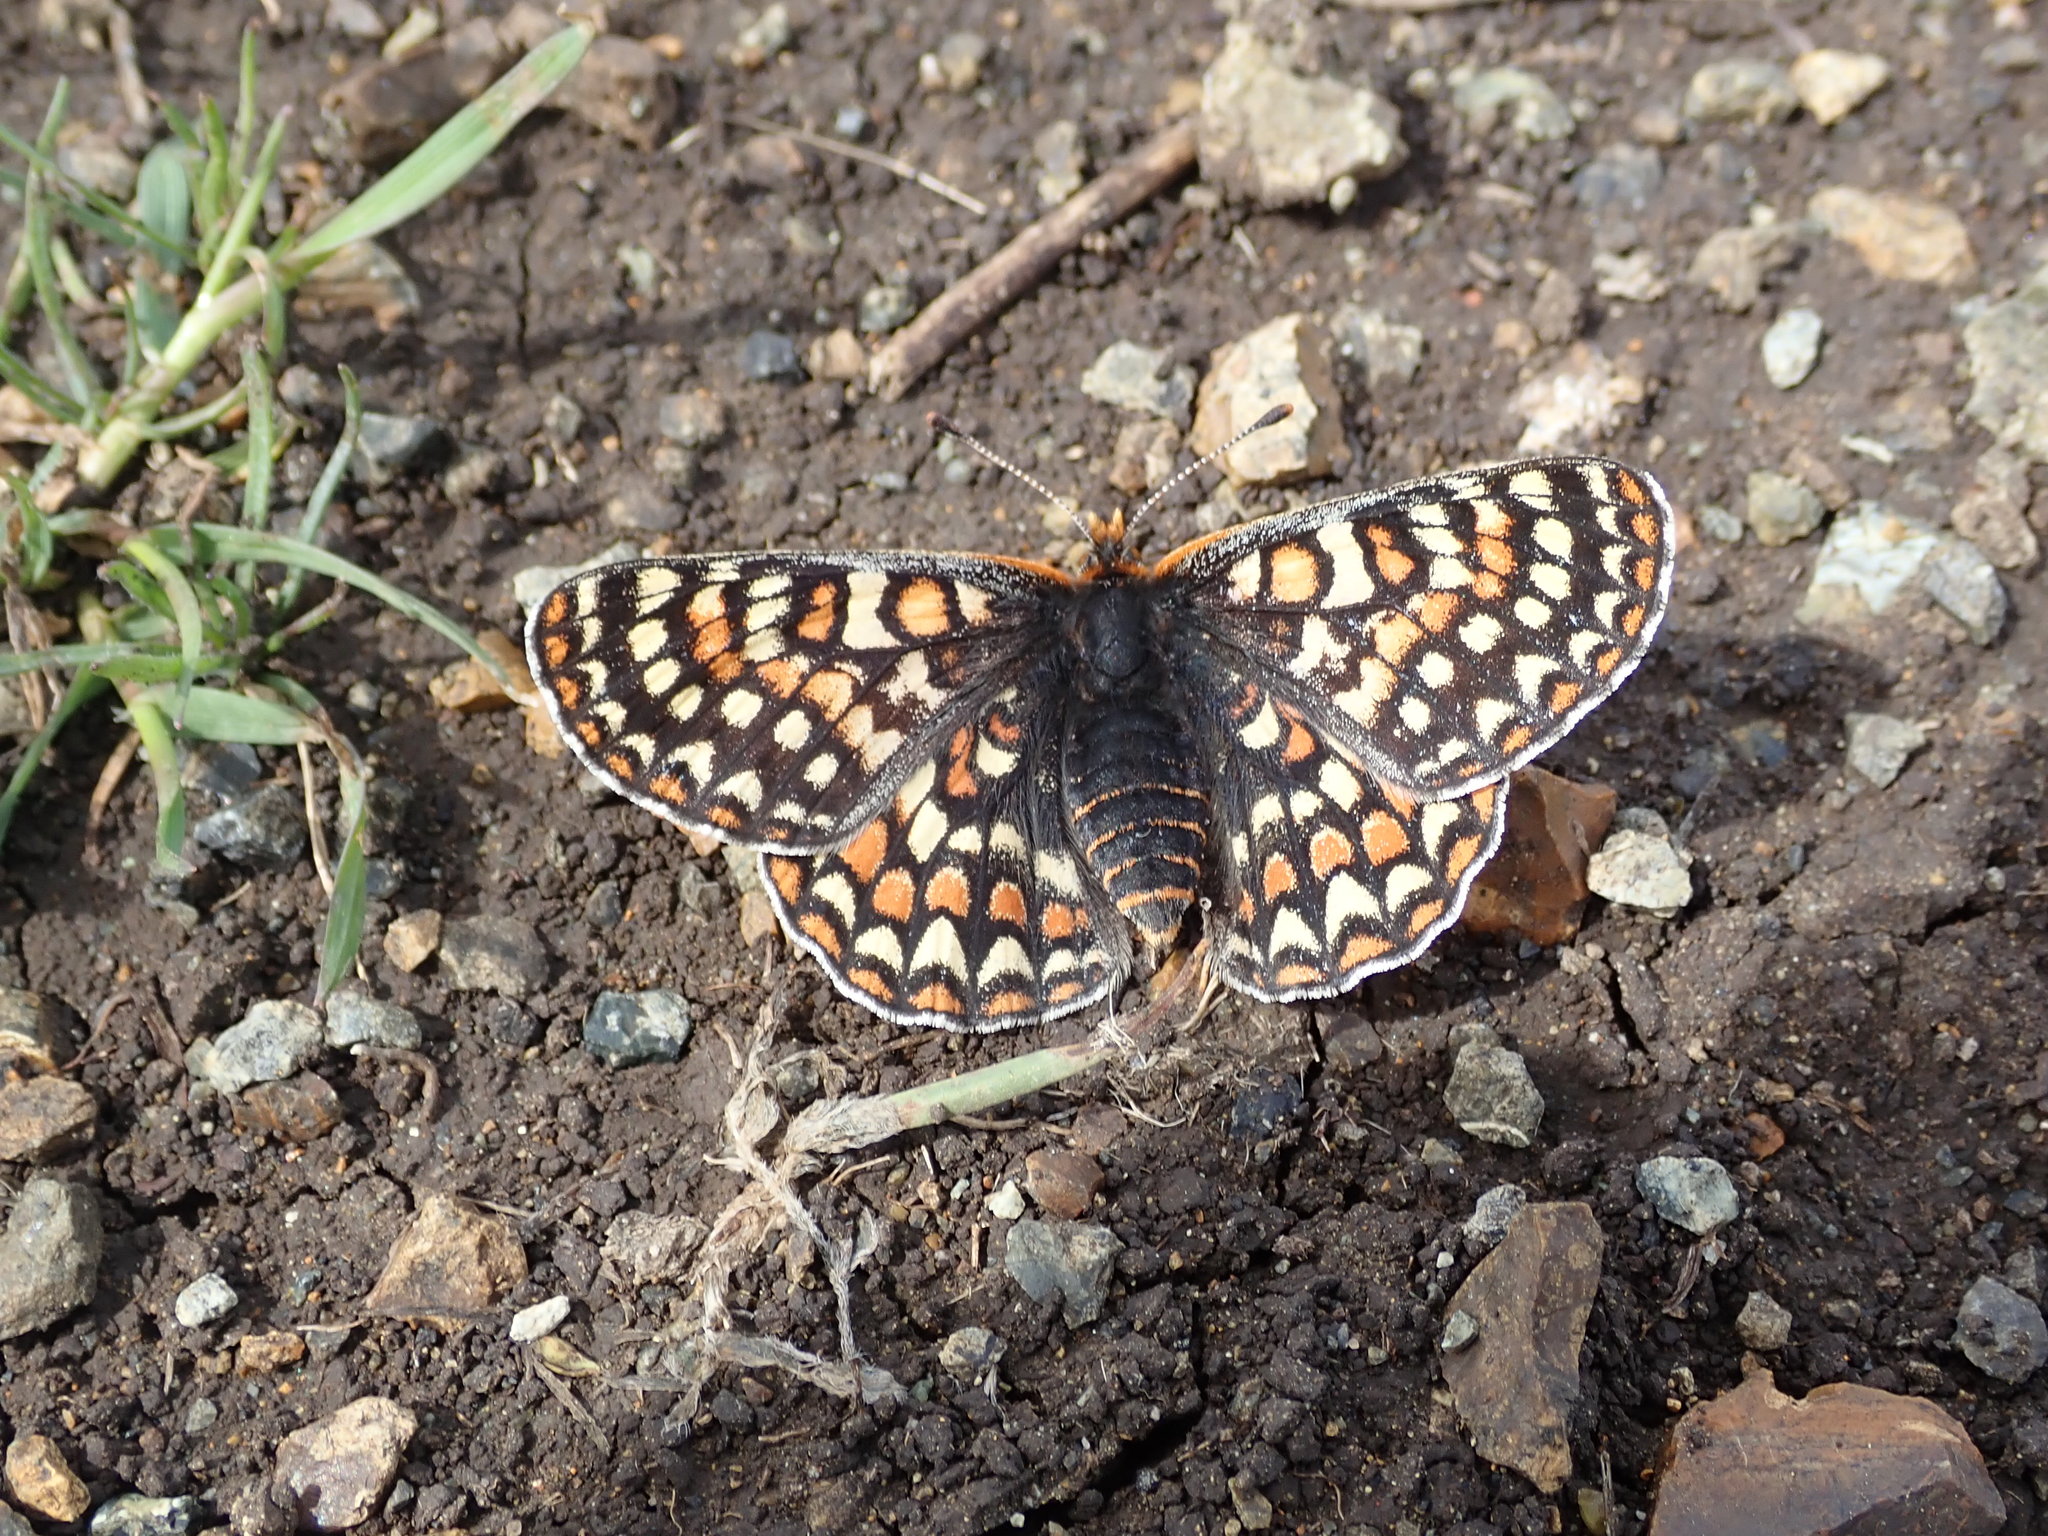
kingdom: Animalia
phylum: Arthropoda
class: Insecta
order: Lepidoptera
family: Nymphalidae
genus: Occidryas
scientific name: Occidryas editha
